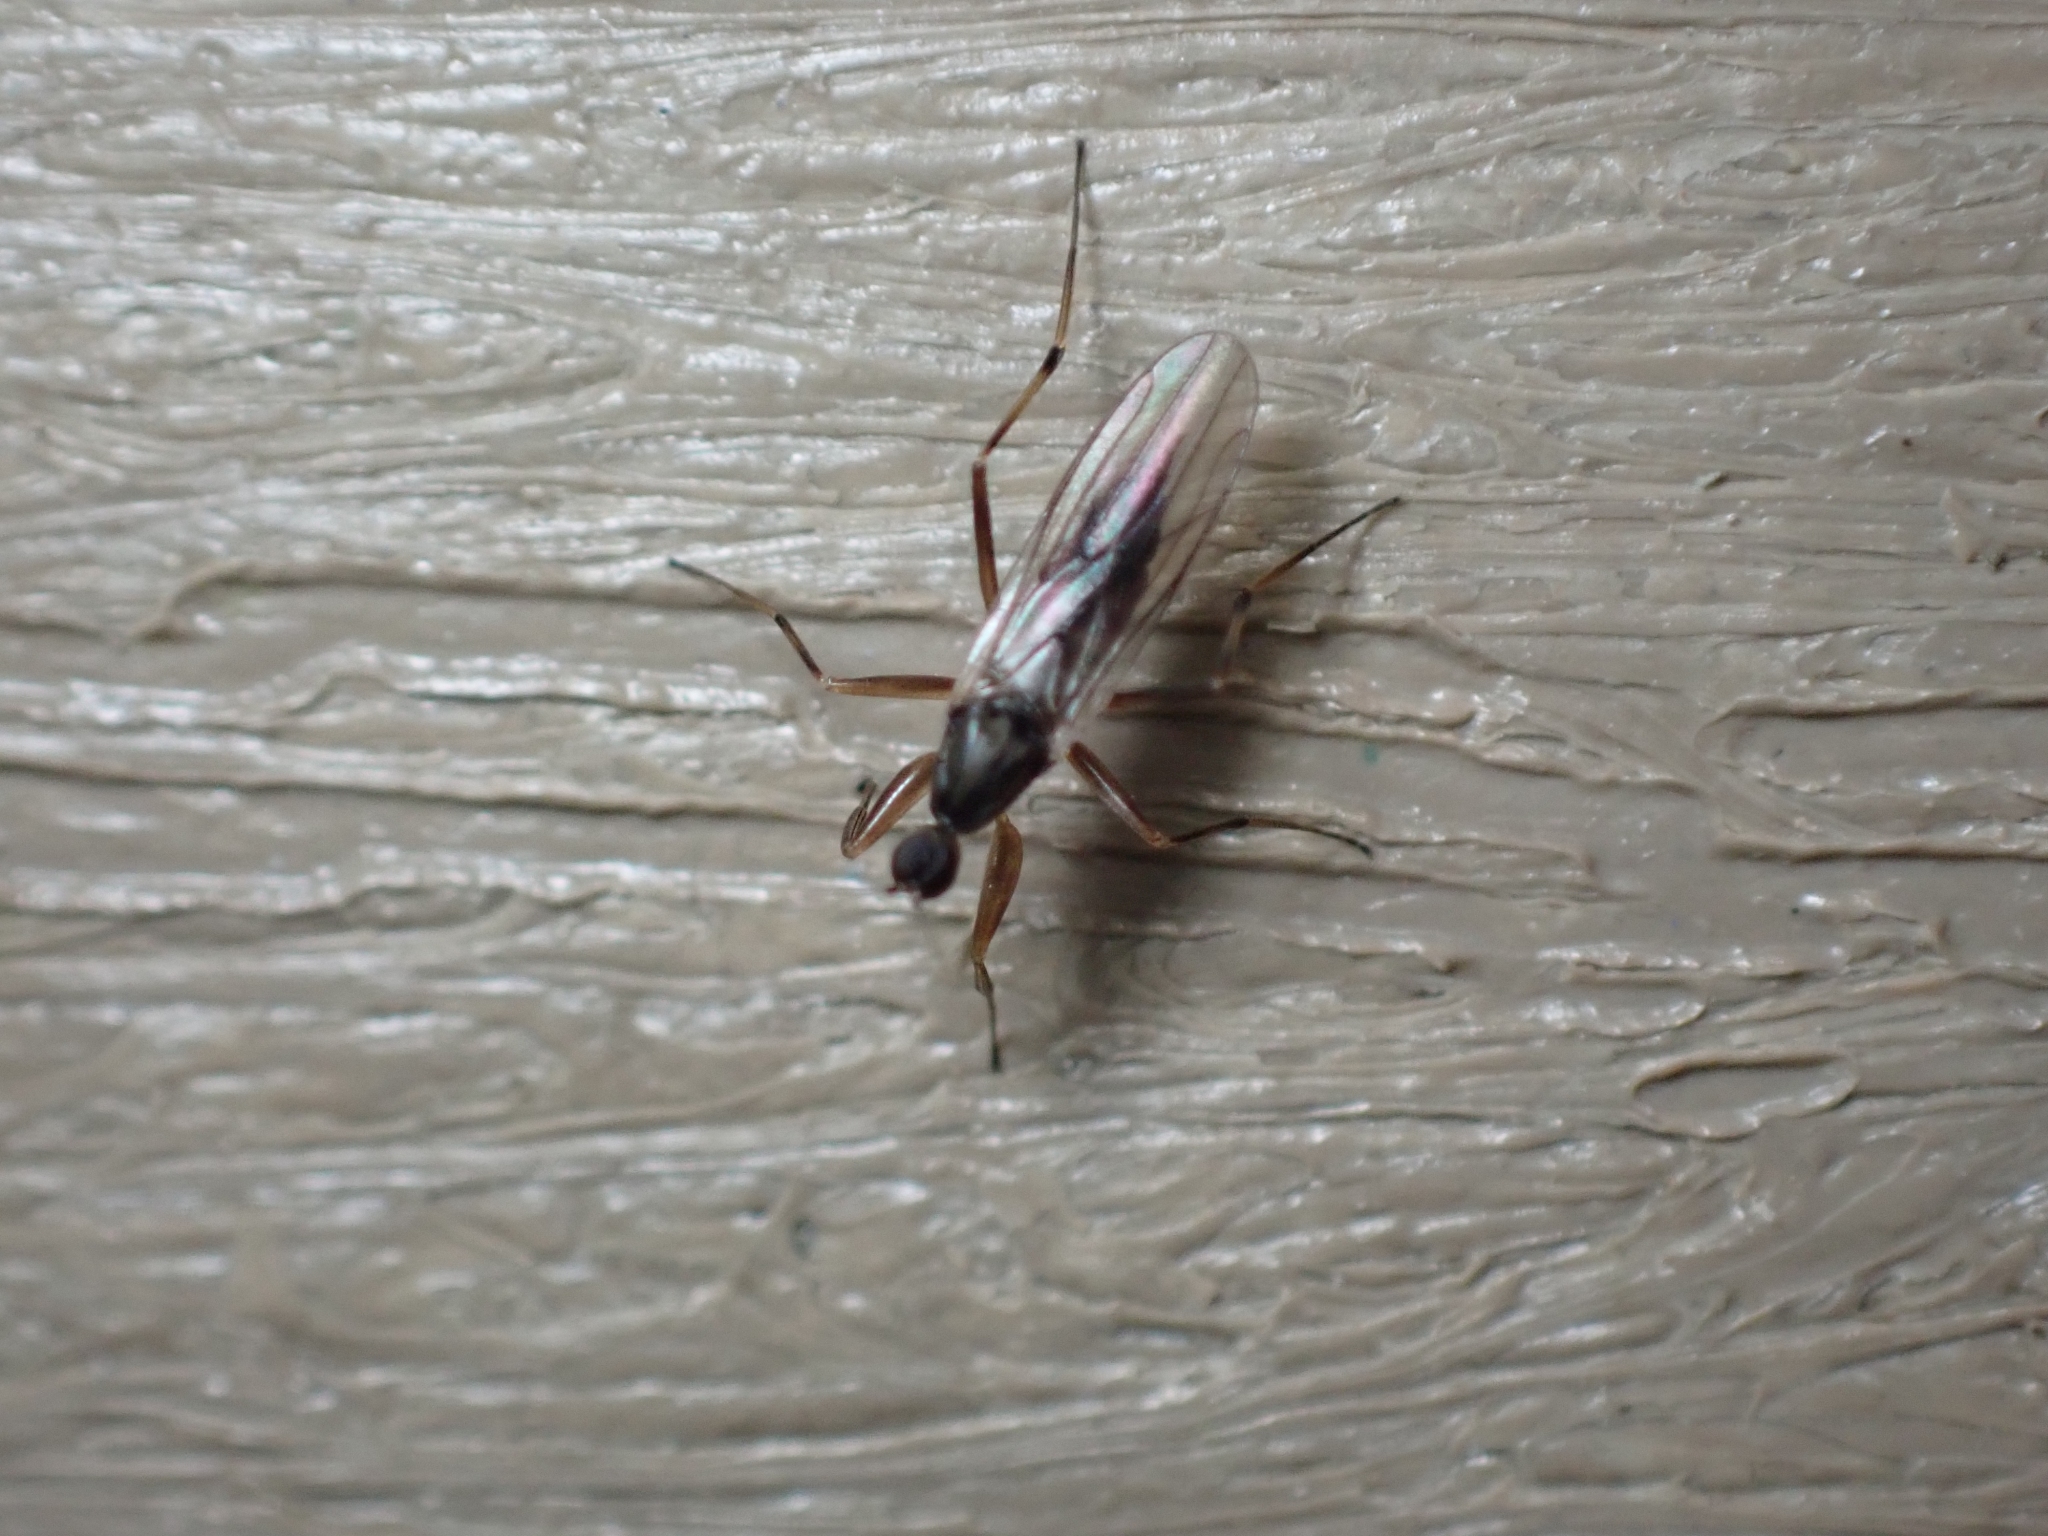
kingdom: Animalia
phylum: Arthropoda
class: Insecta
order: Diptera
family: Hybotidae
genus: Tachypeza
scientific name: Tachypeza inusta
